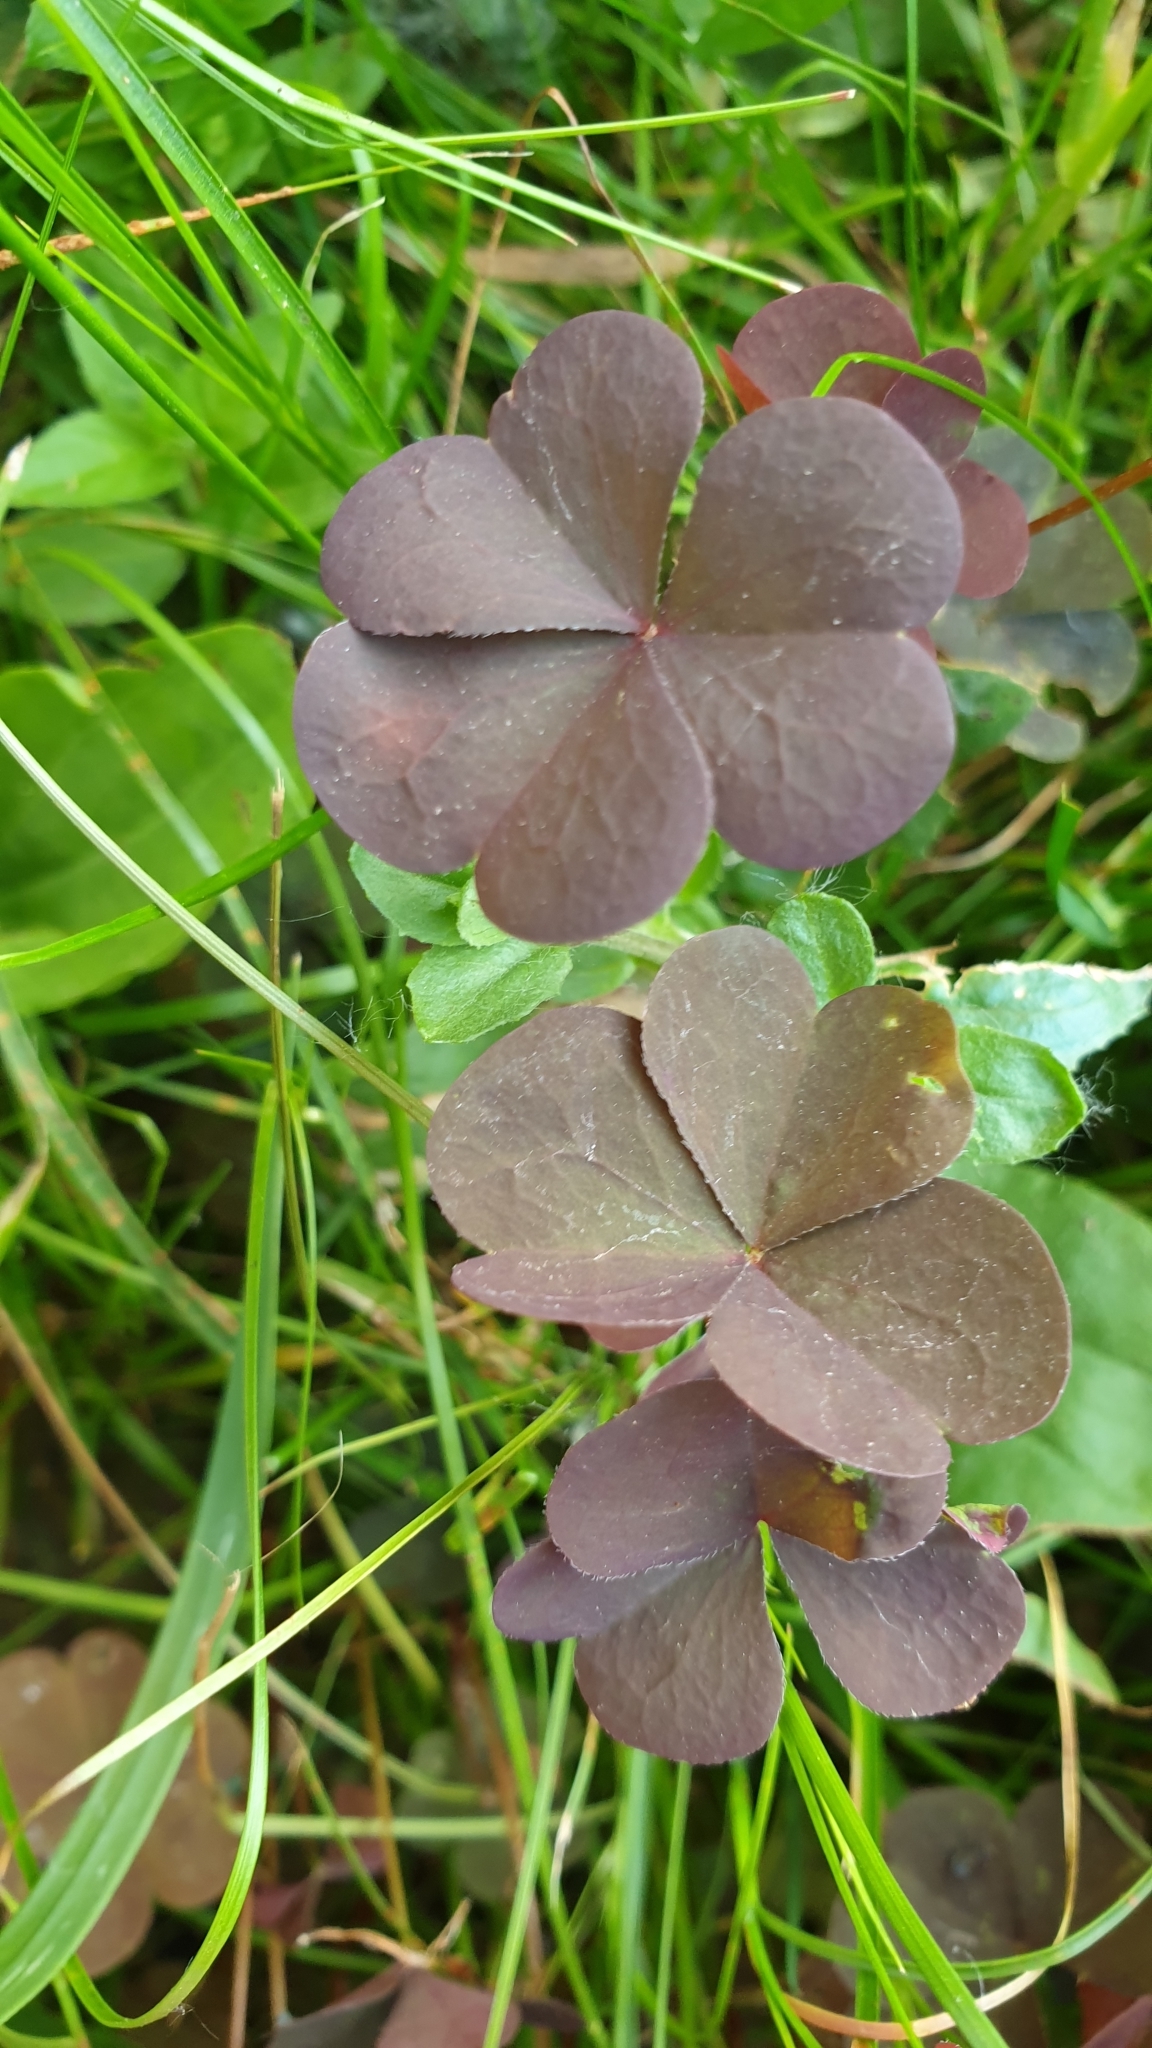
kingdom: Plantae
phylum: Tracheophyta
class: Magnoliopsida
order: Oxalidales
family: Oxalidaceae
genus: Oxalis
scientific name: Oxalis stricta
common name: Upright yellow-sorrel
